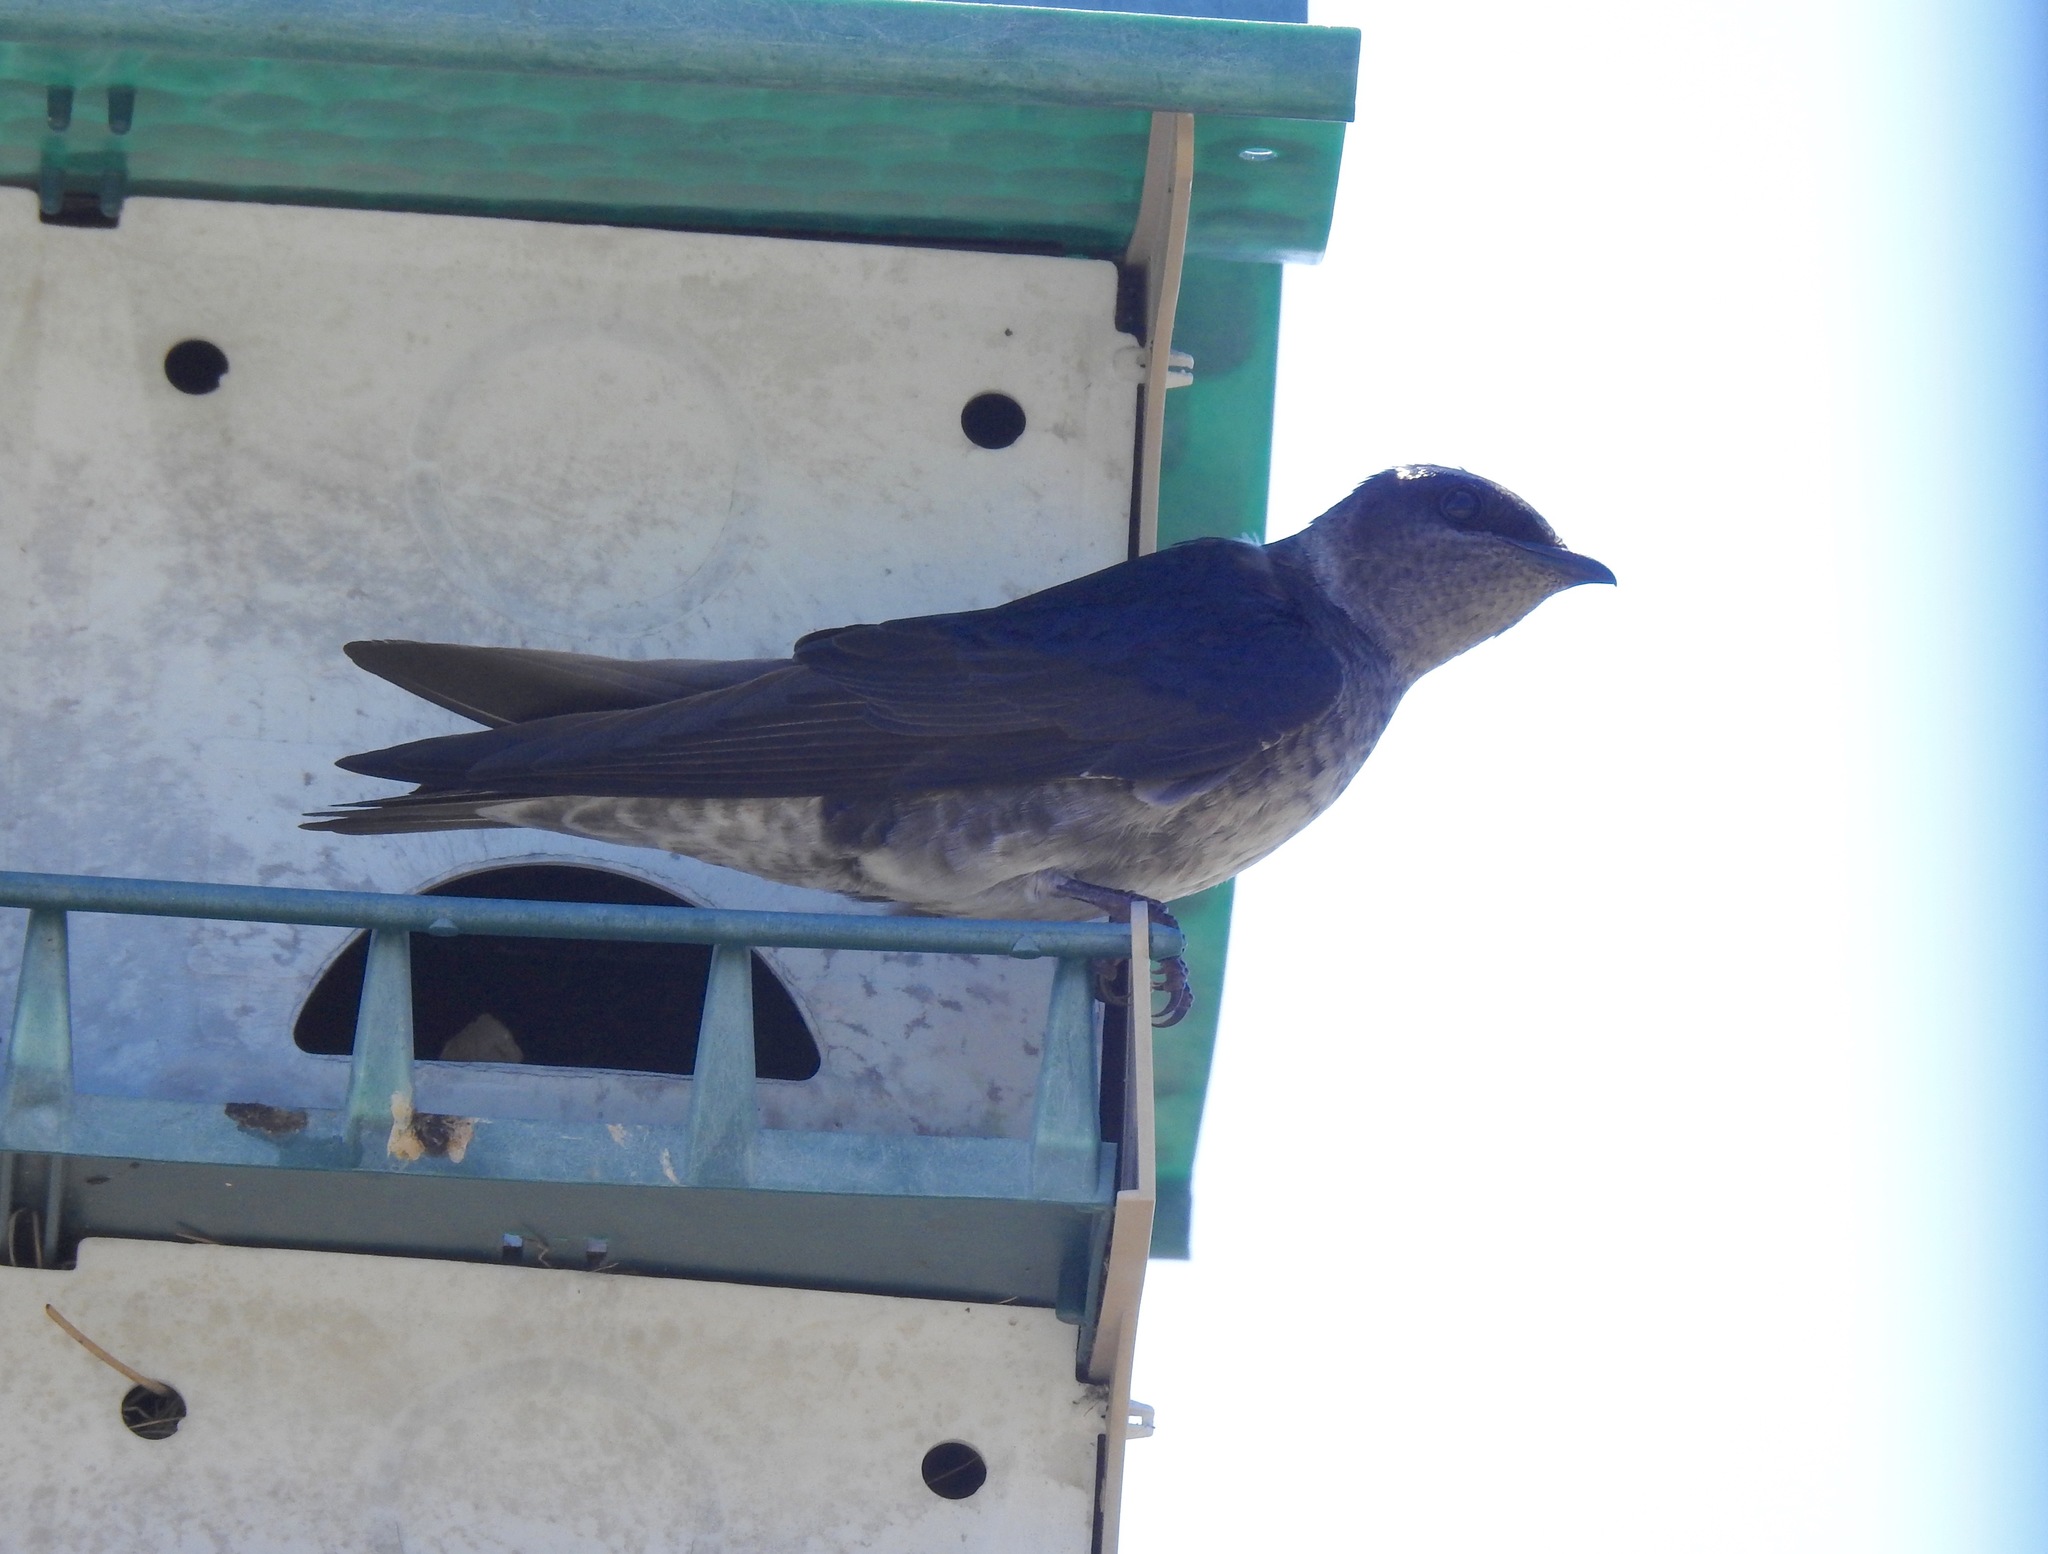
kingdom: Animalia
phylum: Chordata
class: Aves
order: Passeriformes
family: Hirundinidae
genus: Progne
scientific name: Progne subis
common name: Purple martin
